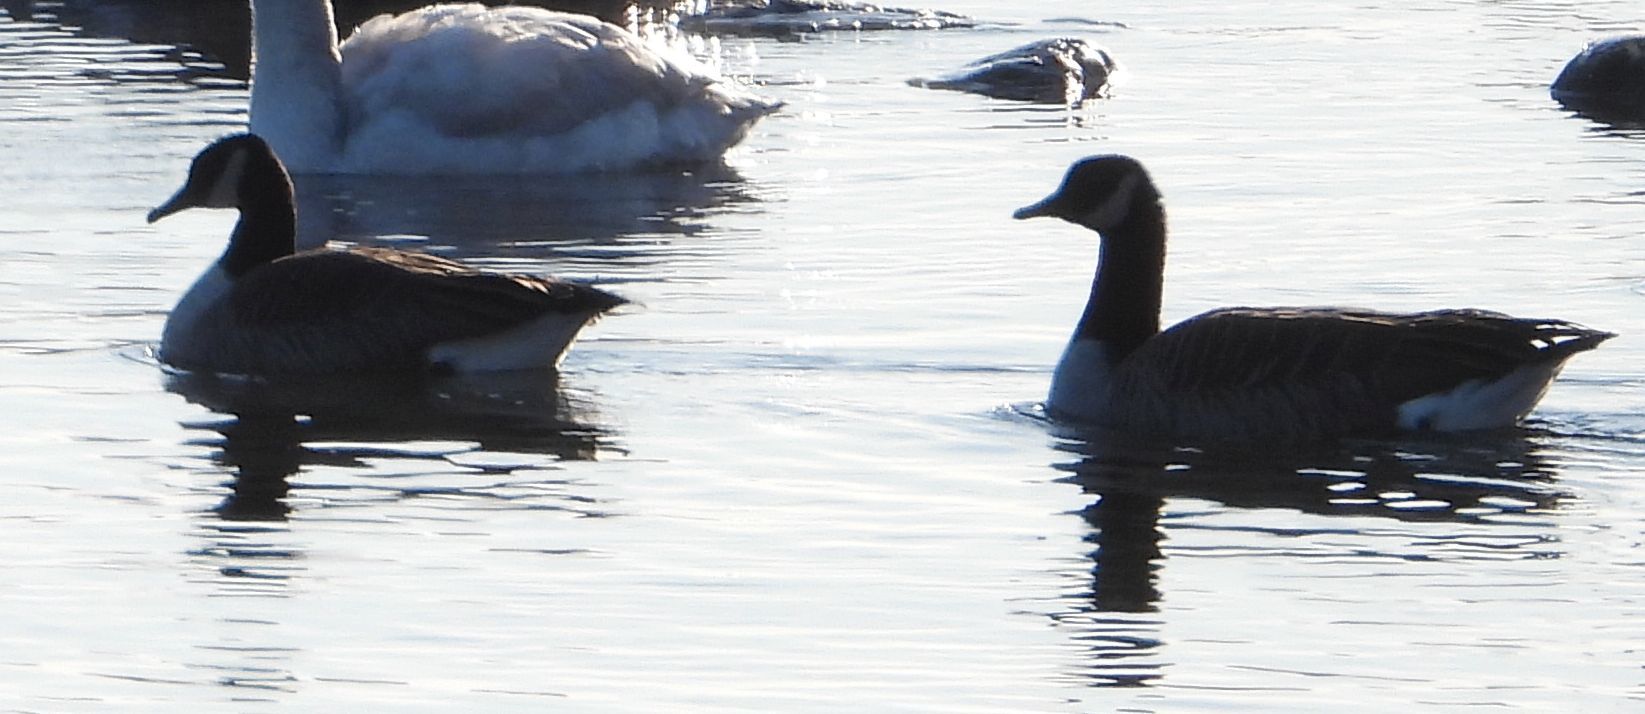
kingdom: Animalia
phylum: Chordata
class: Aves
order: Anseriformes
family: Anatidae
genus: Branta
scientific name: Branta canadensis
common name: Canada goose
